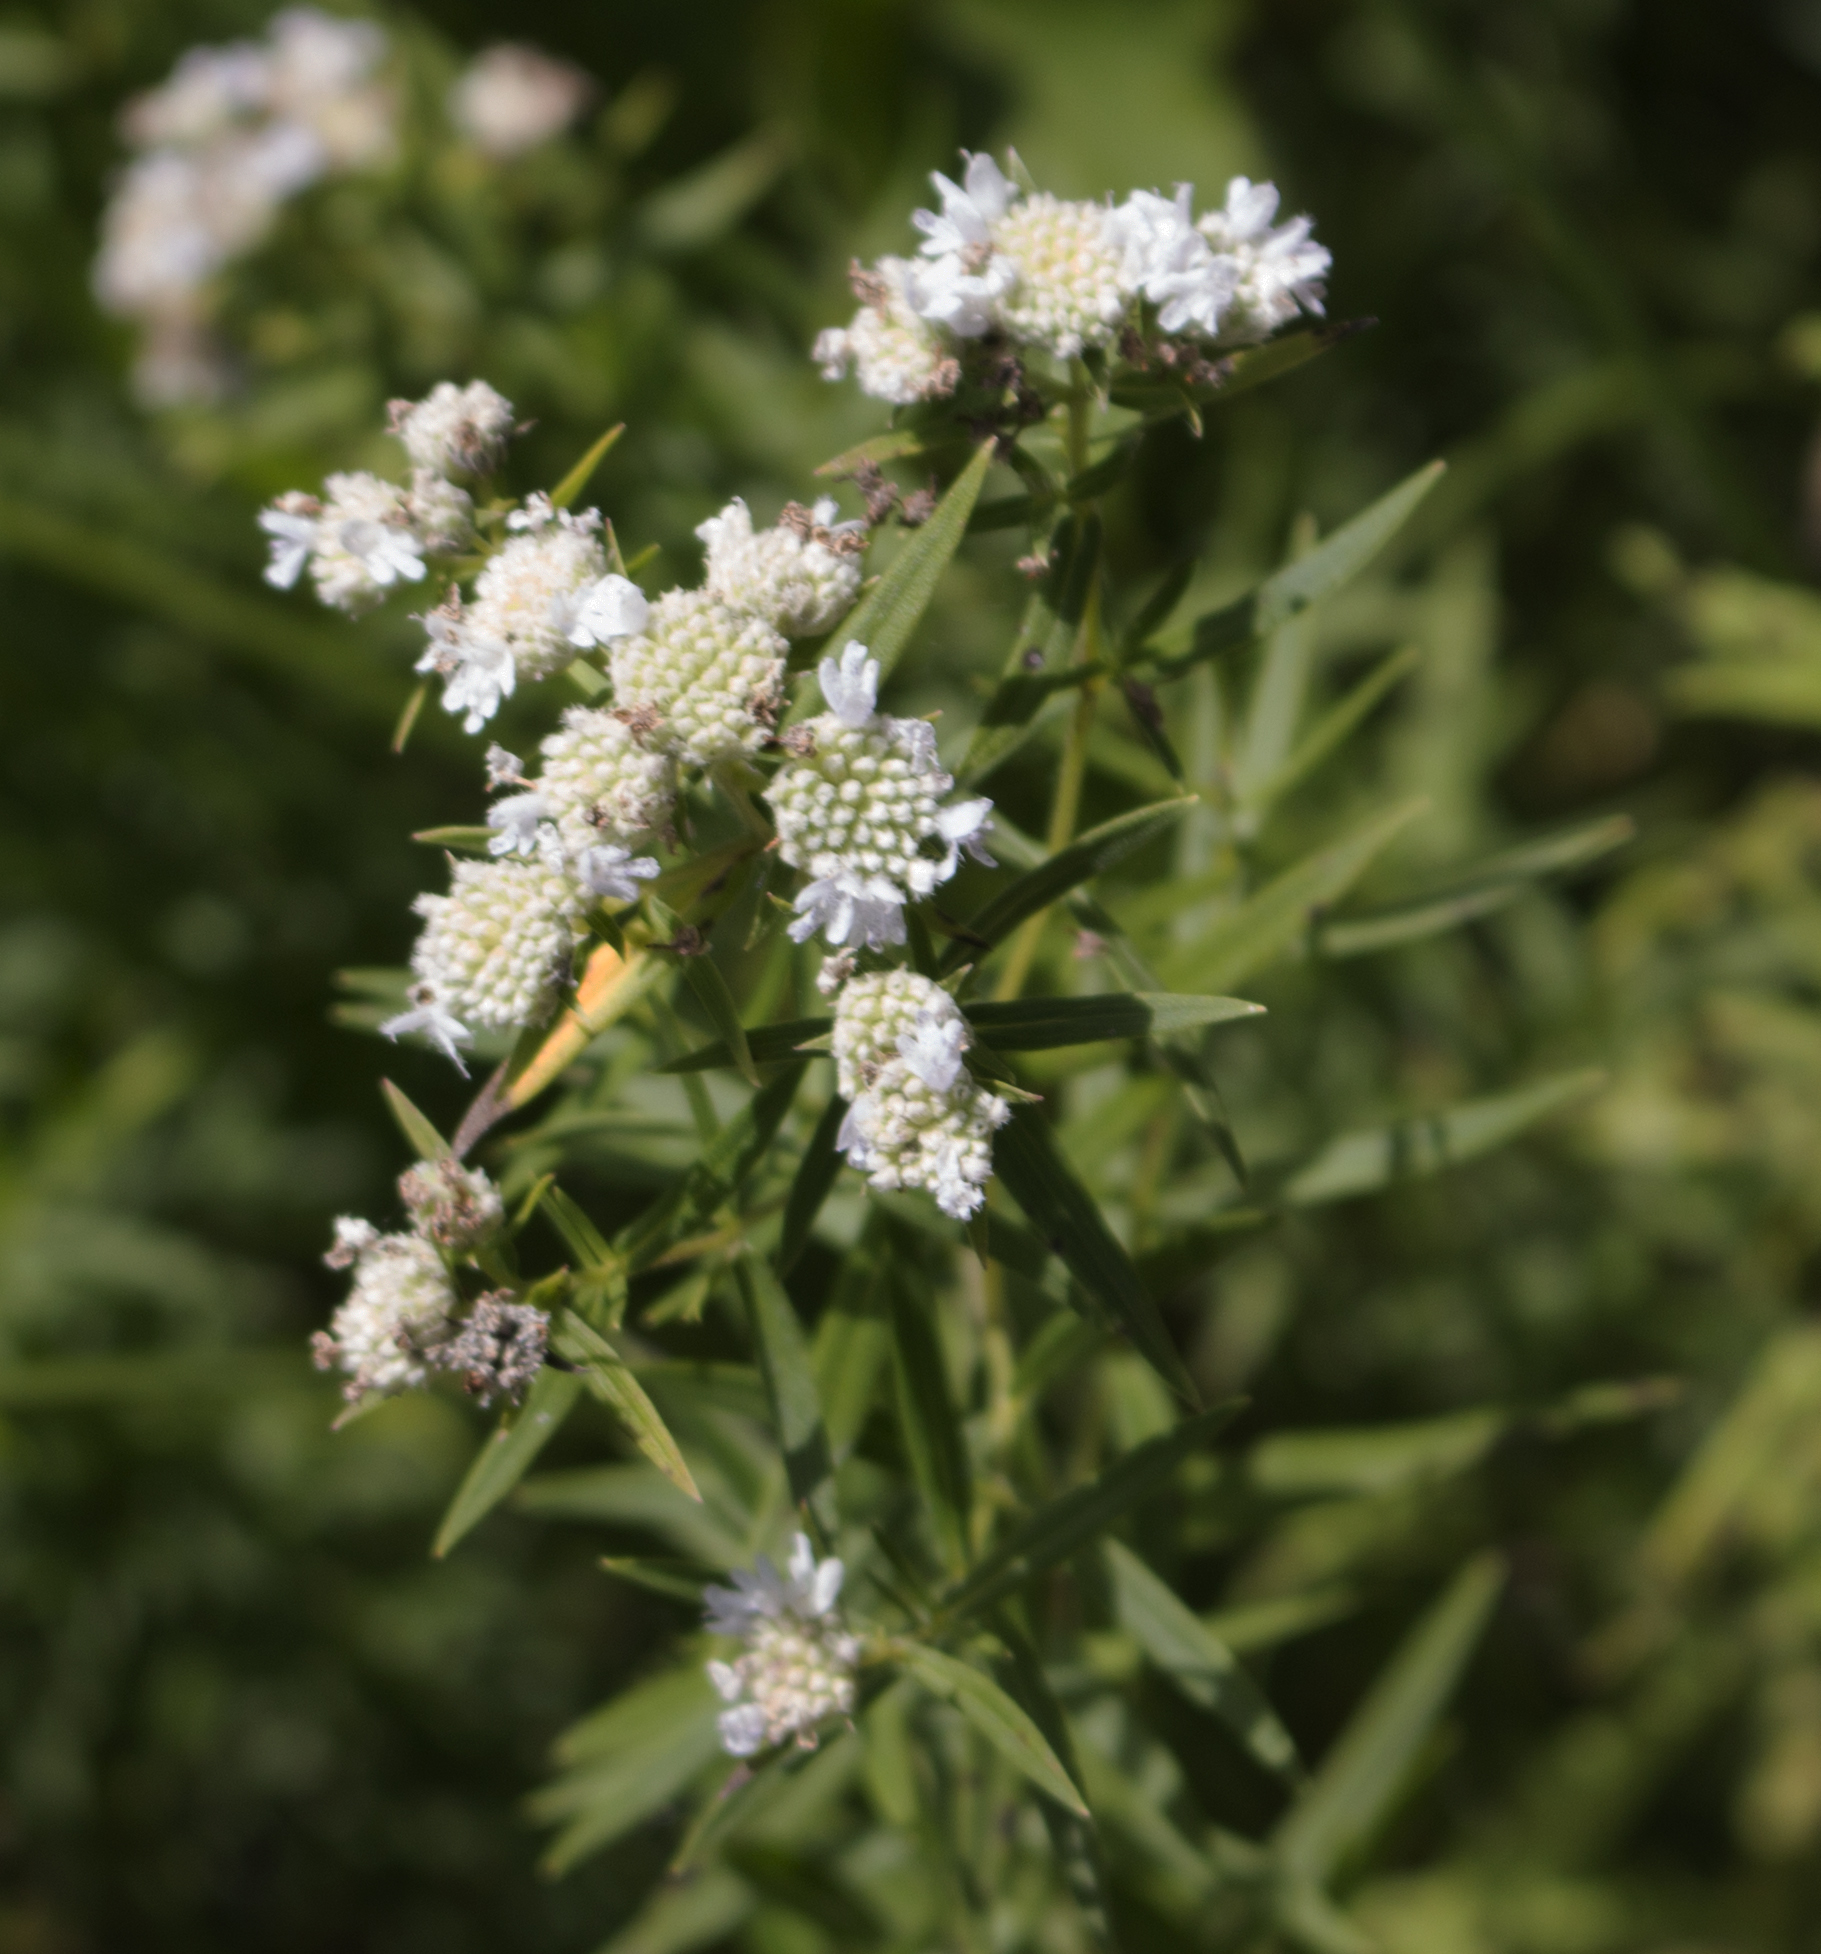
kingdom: Plantae
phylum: Tracheophyta
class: Magnoliopsida
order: Lamiales
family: Lamiaceae
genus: Pycnanthemum
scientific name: Pycnanthemum virginianum
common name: Virginia mountain-mint
